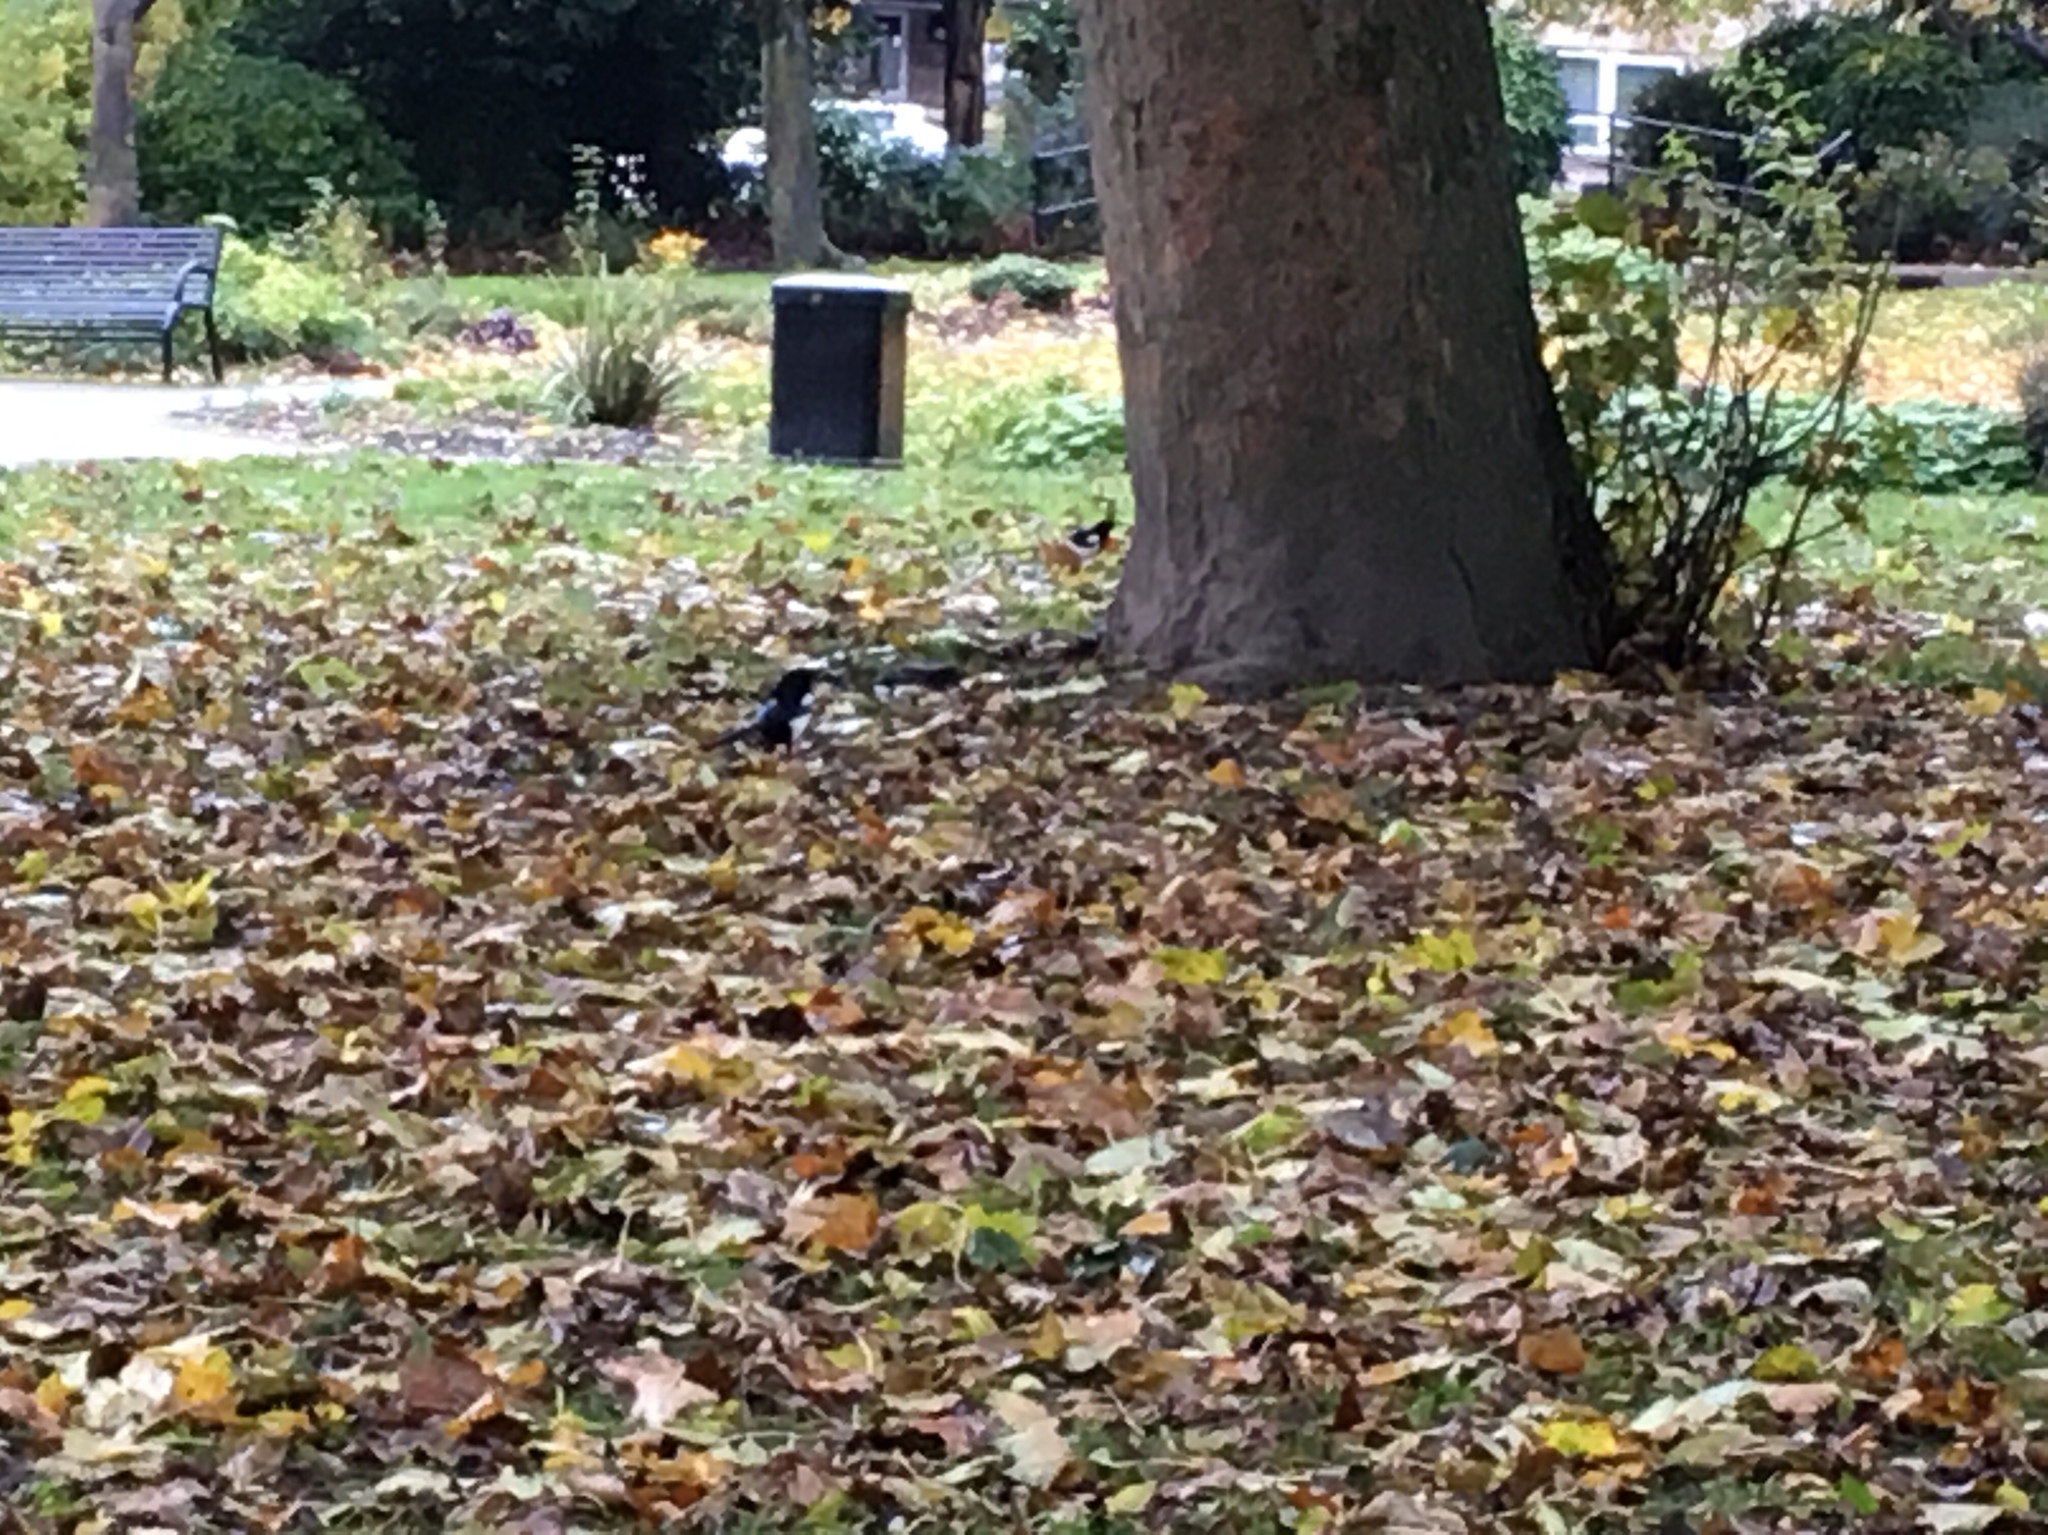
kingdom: Animalia
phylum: Chordata
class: Aves
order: Passeriformes
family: Corvidae
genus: Pica
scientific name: Pica pica
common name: Eurasian magpie
